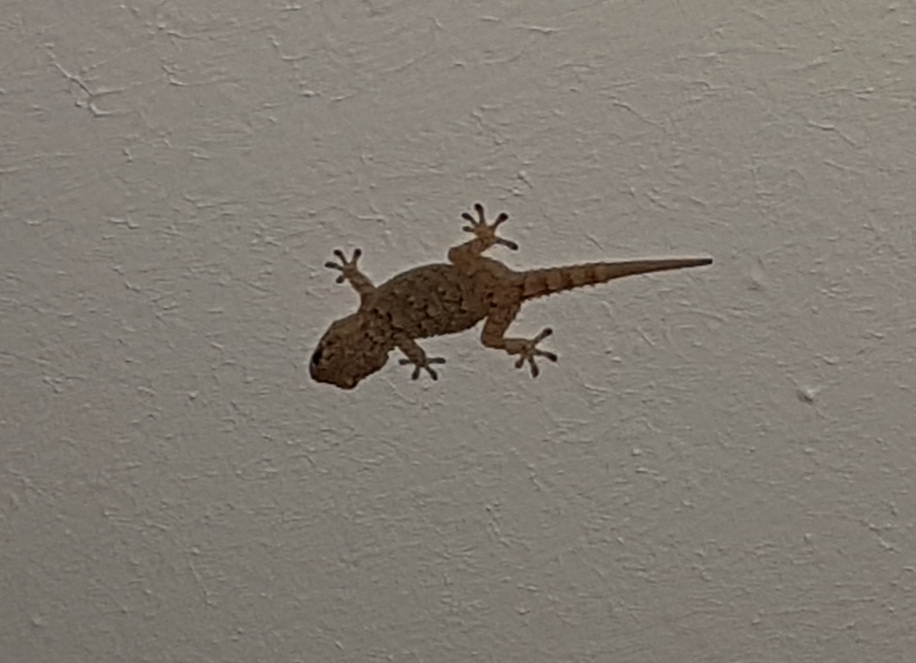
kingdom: Animalia
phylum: Chordata
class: Squamata
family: Phyllodactylidae
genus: Tarentola
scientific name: Tarentola mauritanica
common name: Moorish gecko
